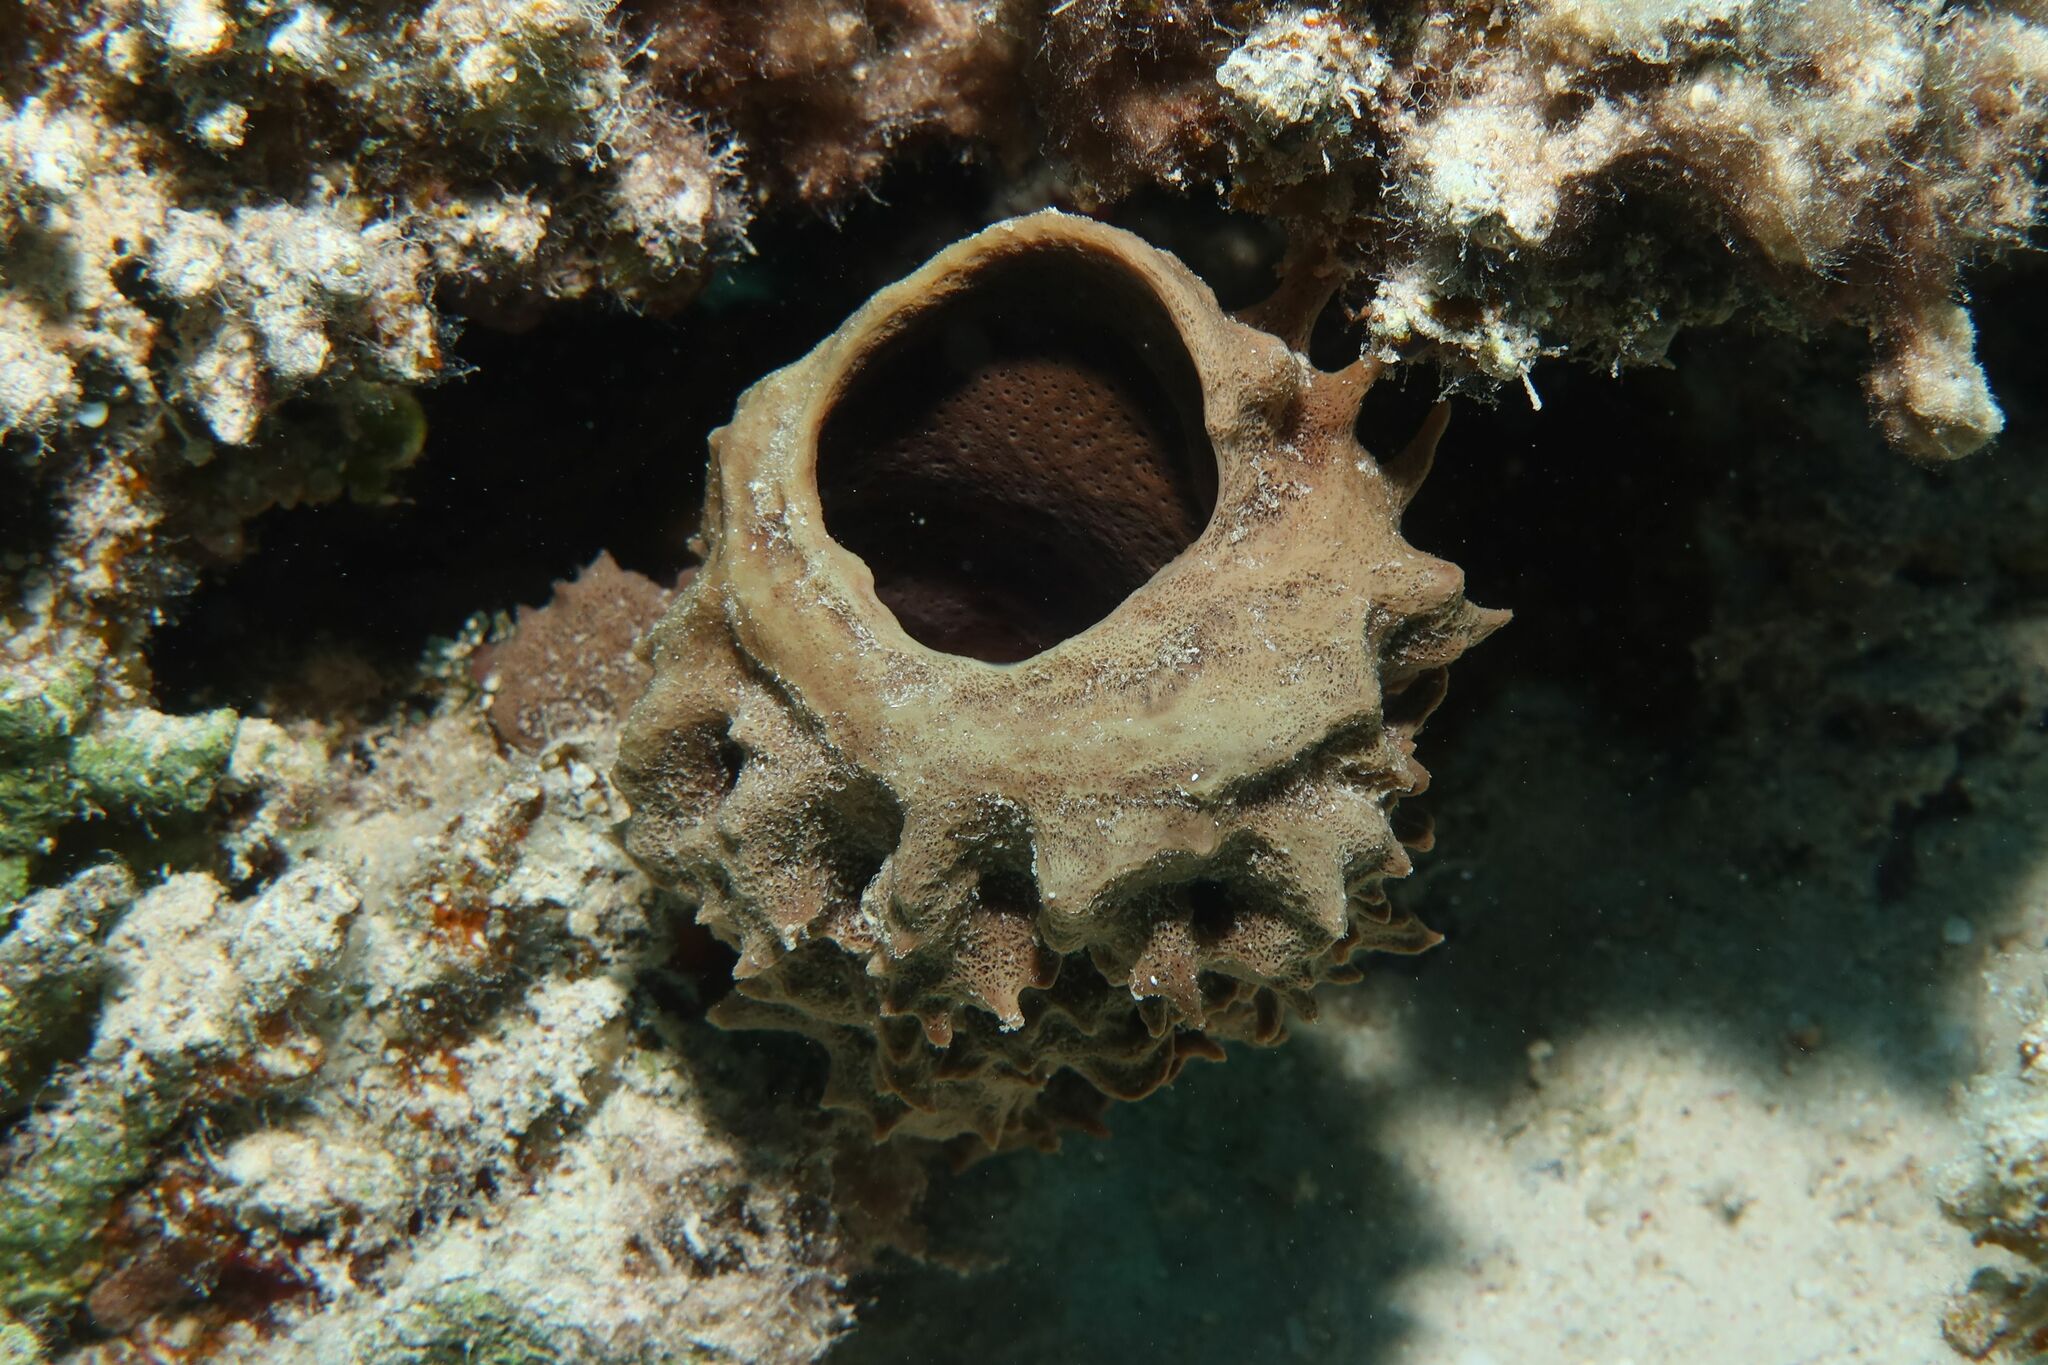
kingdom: Animalia
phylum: Porifera
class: Demospongiae
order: Haplosclerida
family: Callyspongiidae
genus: Callyspongia
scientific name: Callyspongia crassa
